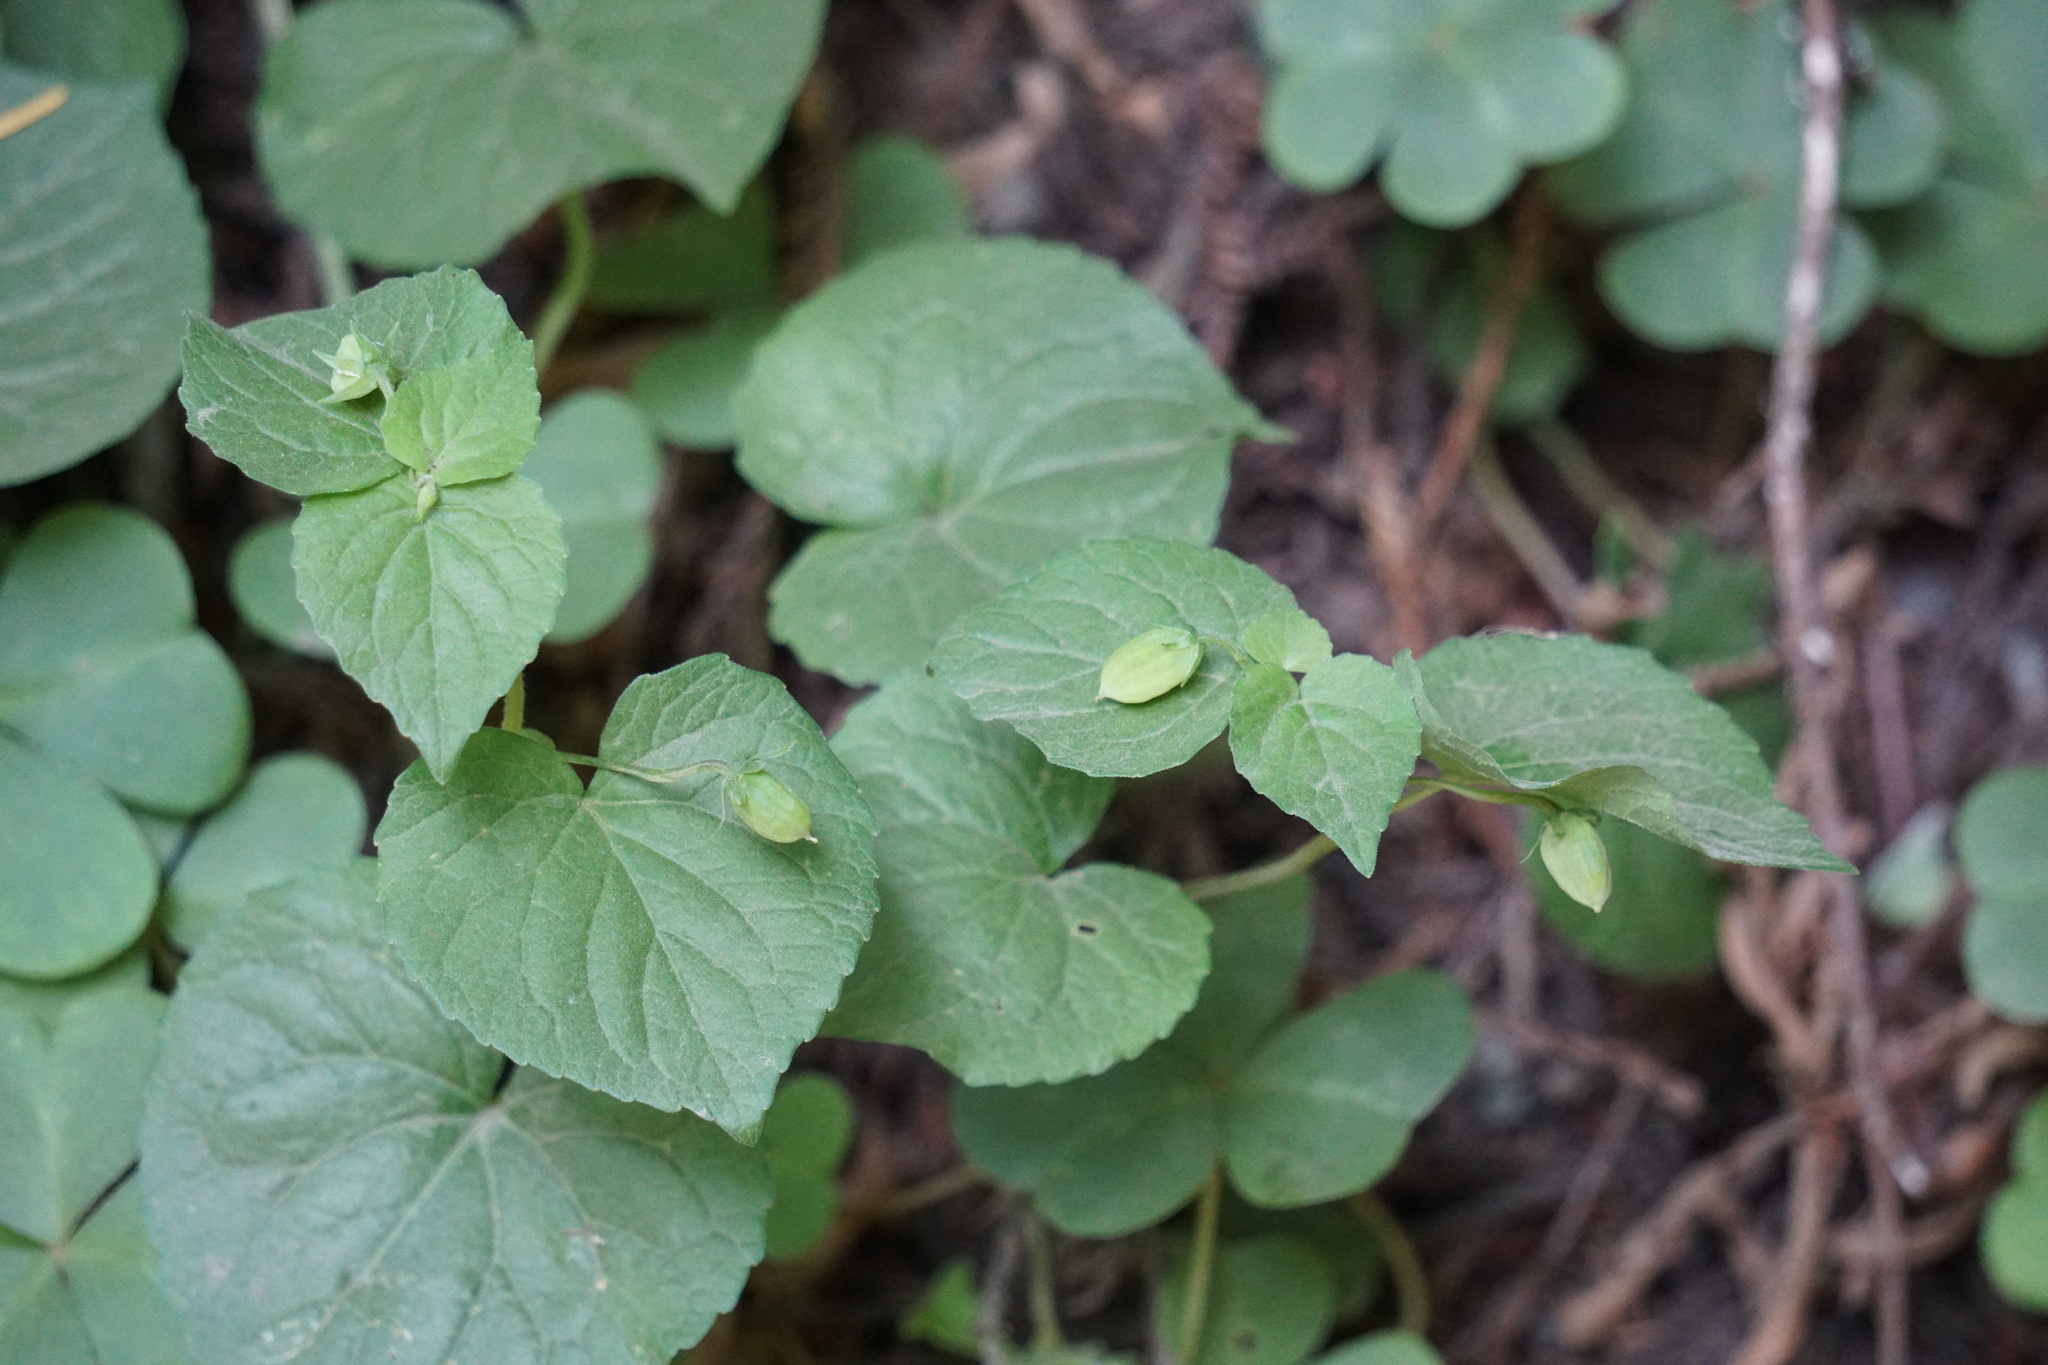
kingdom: Plantae
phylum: Tracheophyta
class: Magnoliopsida
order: Malpighiales
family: Violaceae
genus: Viola
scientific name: Viola glabella
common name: Stream violet
